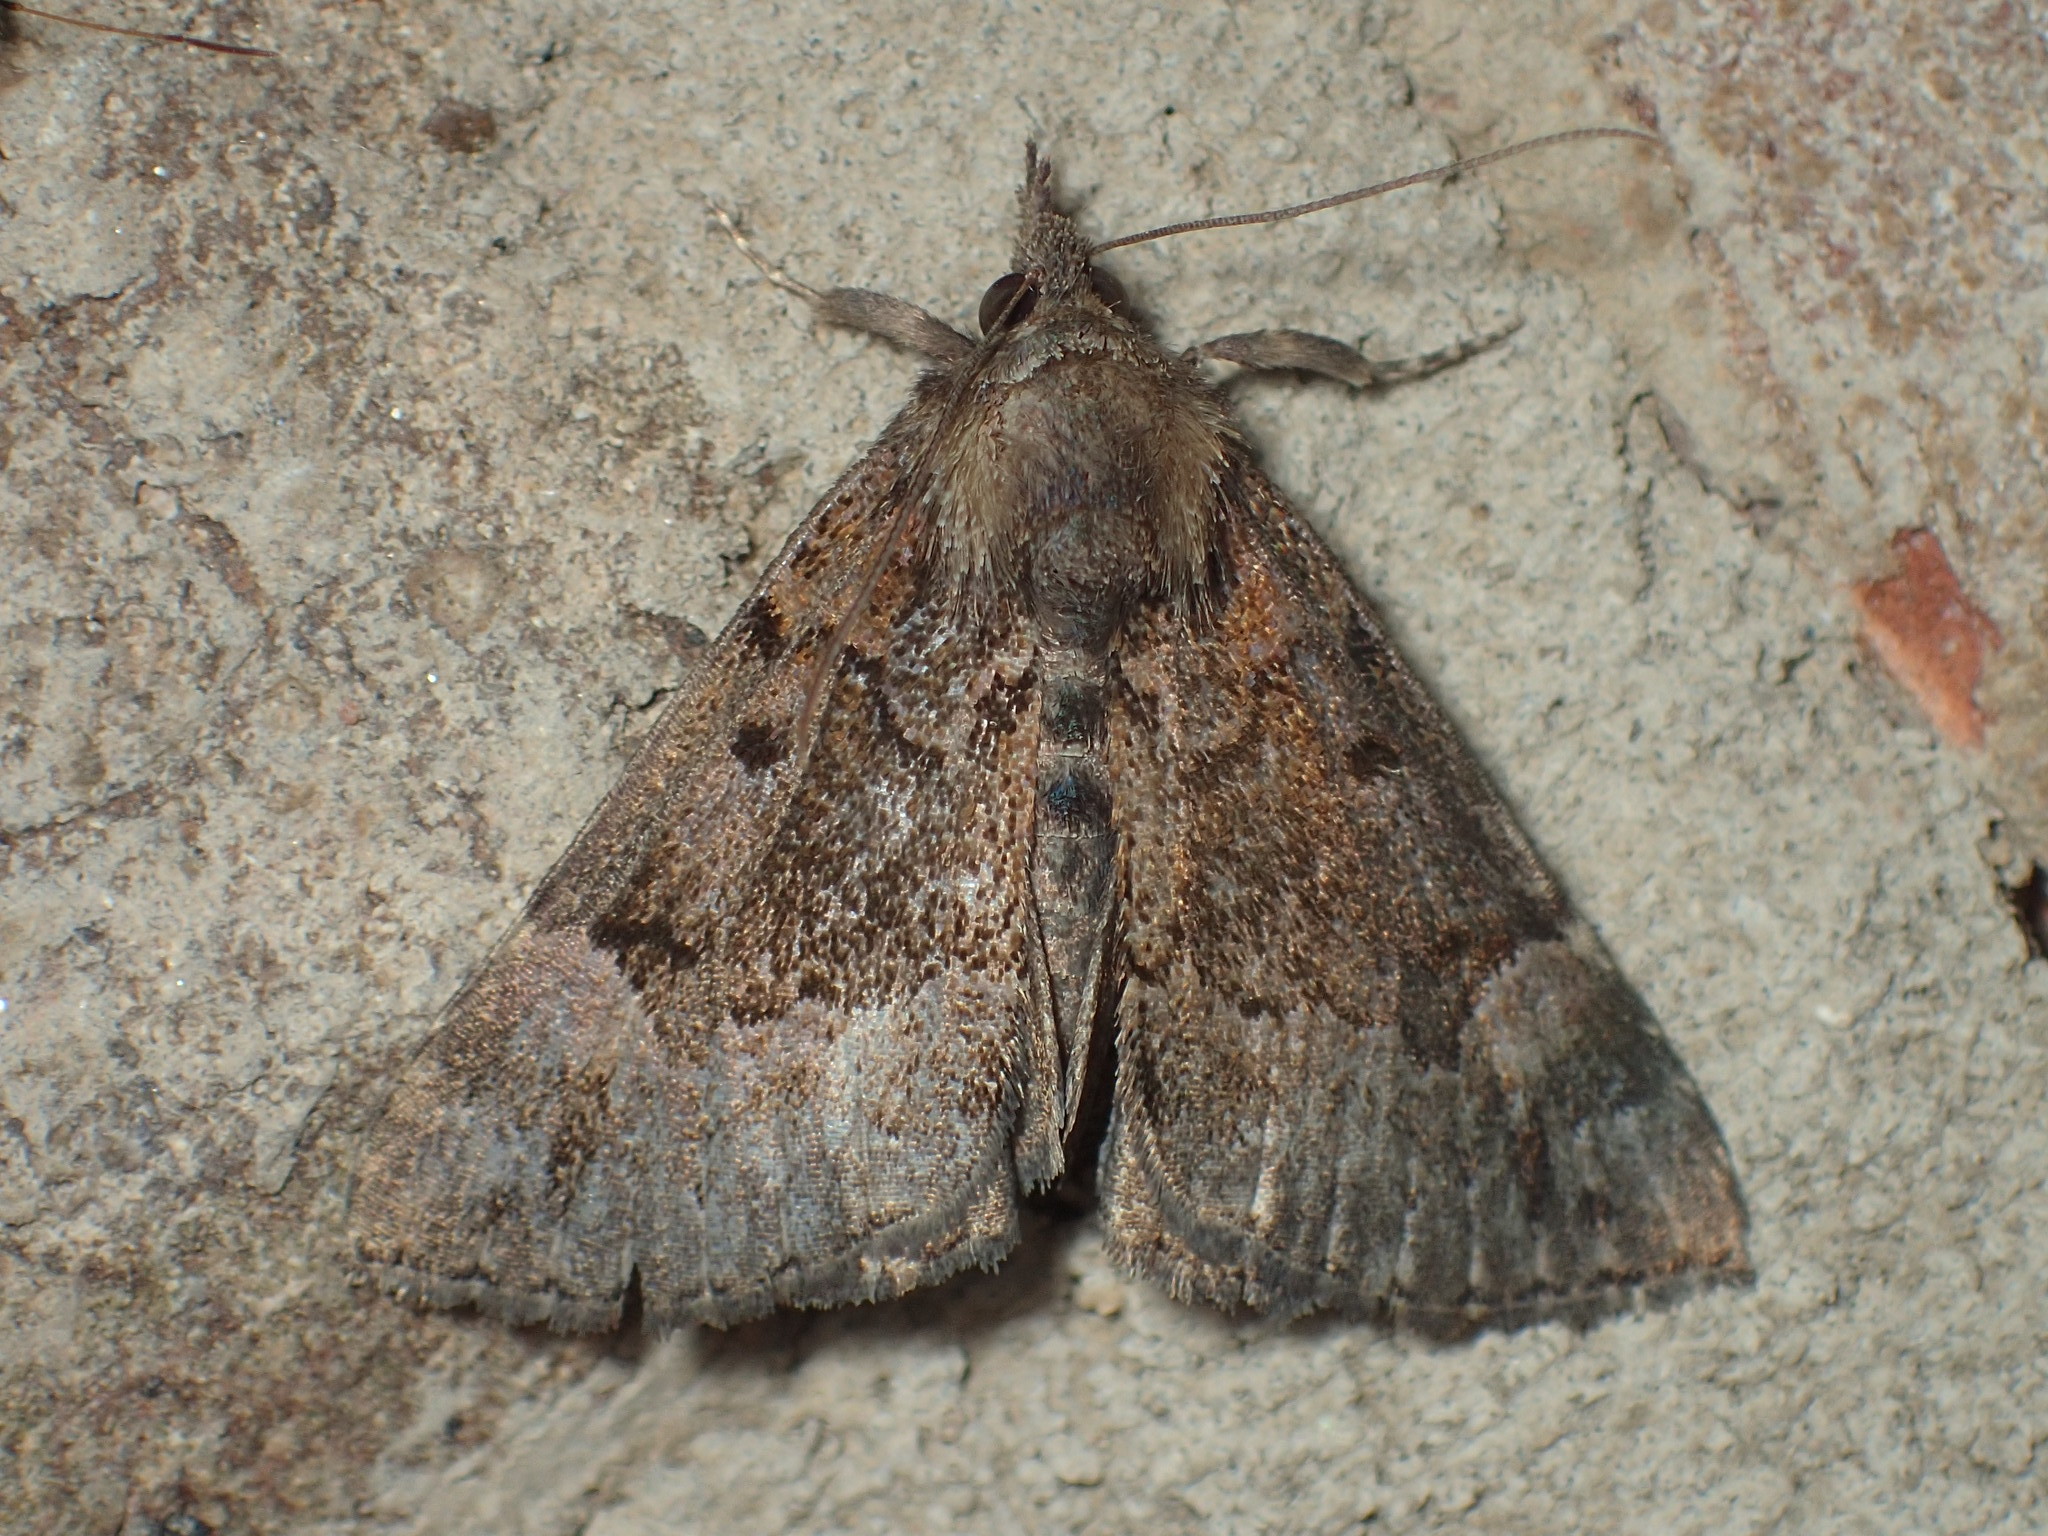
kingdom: Animalia
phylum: Arthropoda
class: Insecta
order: Lepidoptera
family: Erebidae
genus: Hypena
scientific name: Hypena palparia
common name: Mottled bomolocha moth
